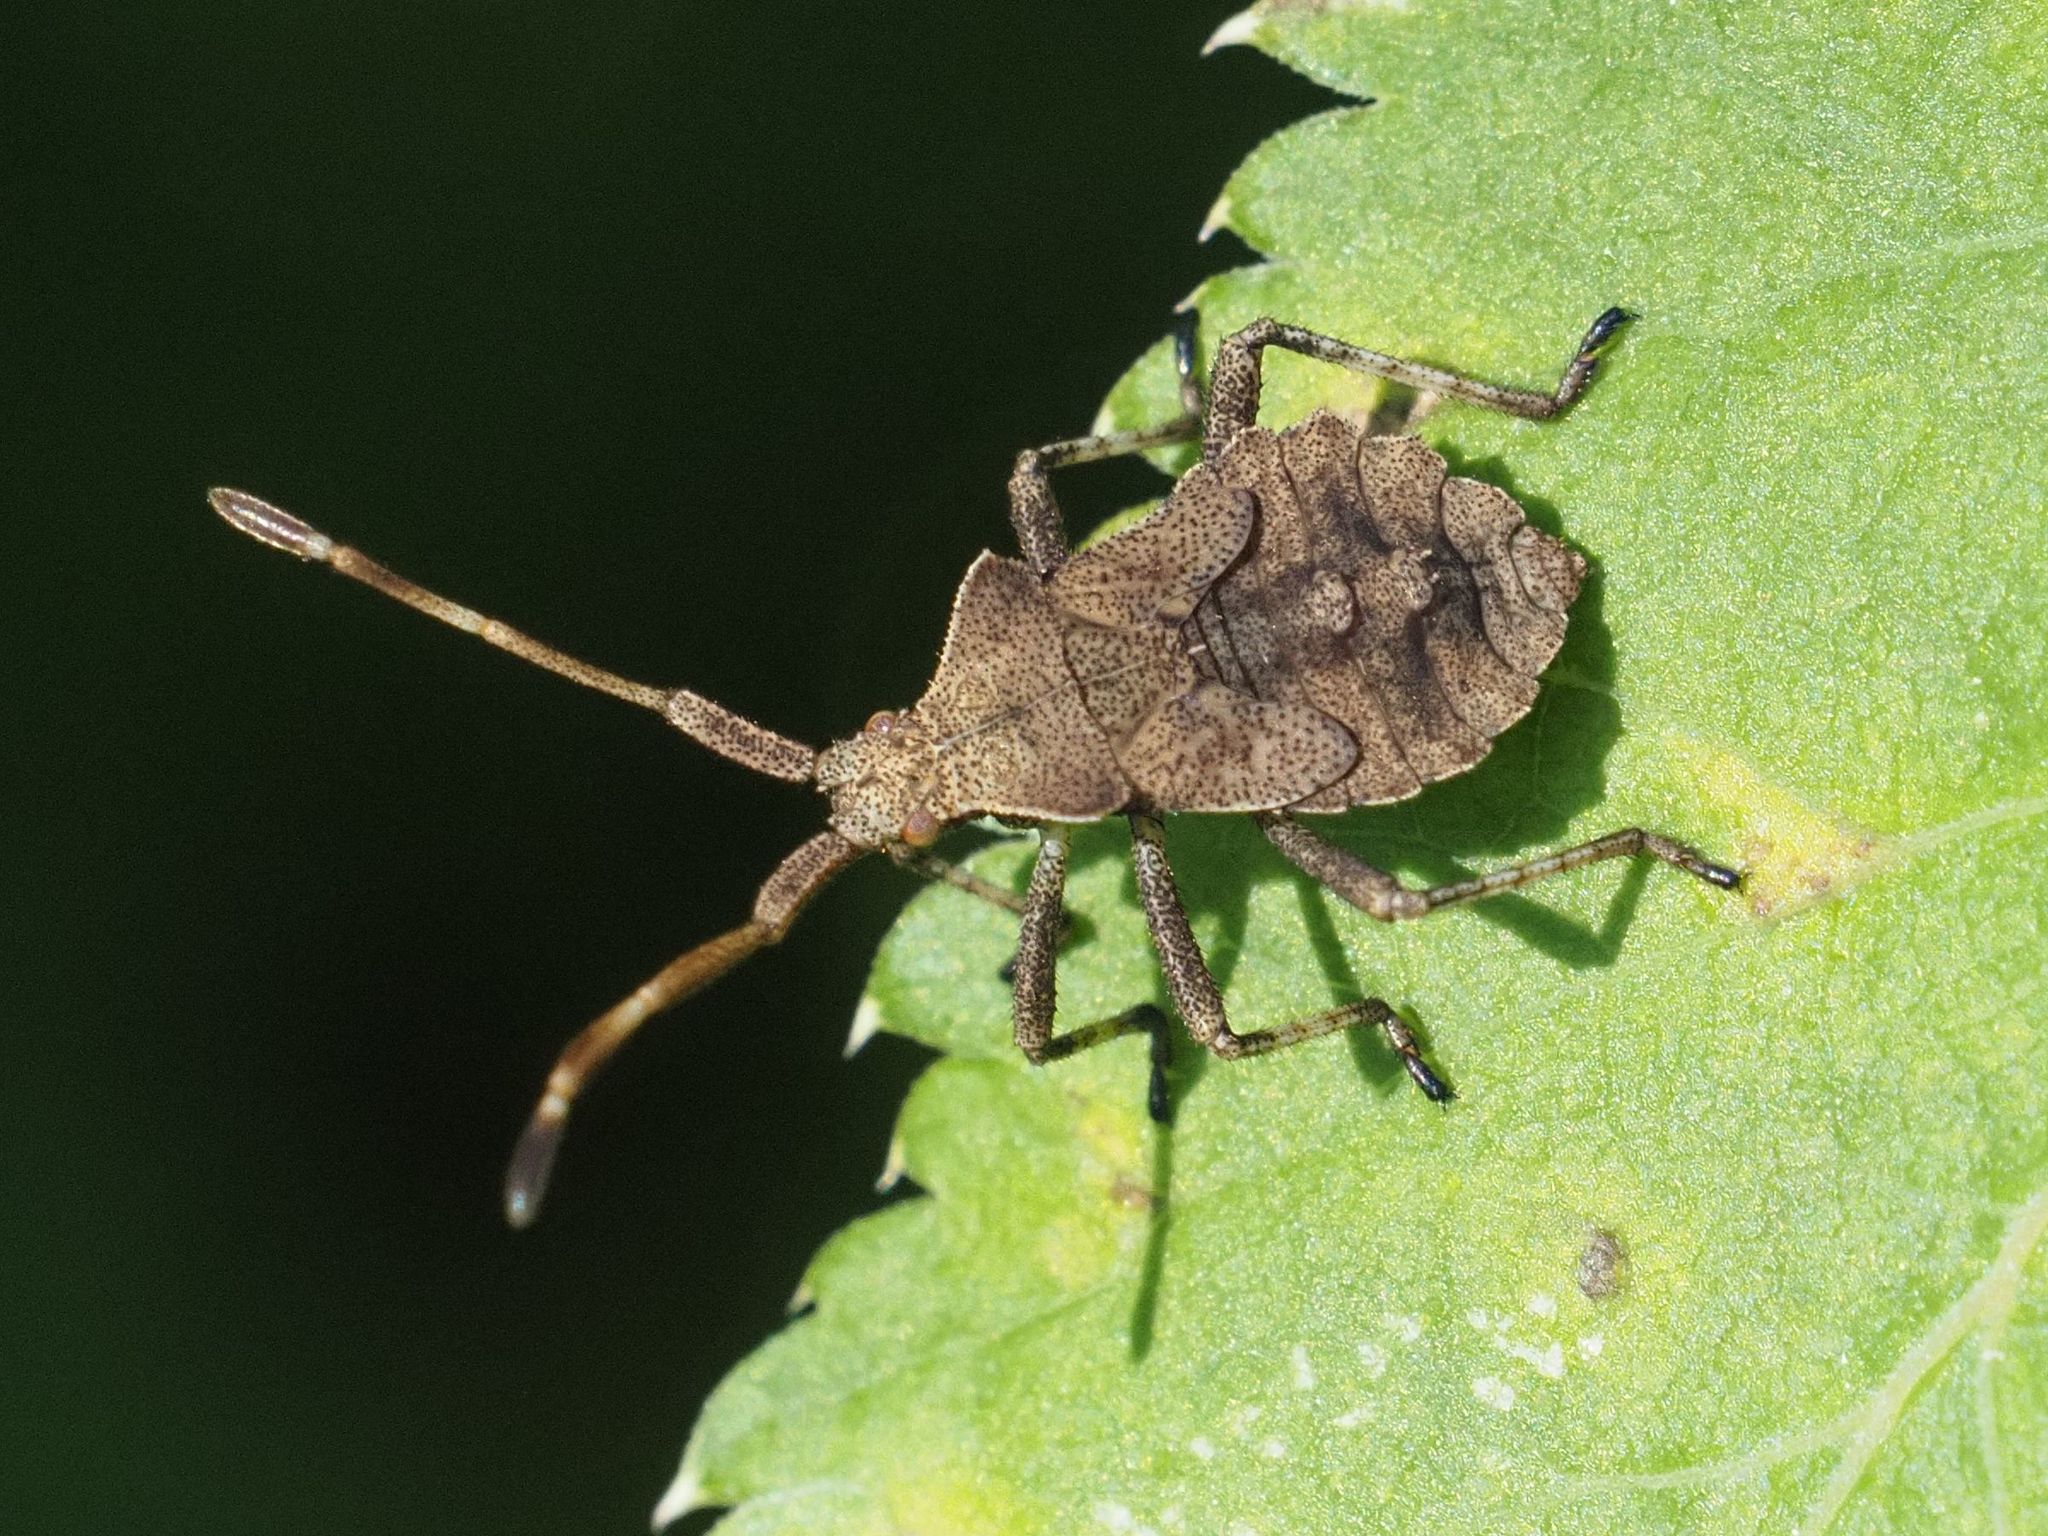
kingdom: Animalia
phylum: Arthropoda
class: Insecta
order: Hemiptera
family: Coreidae
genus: Coreus
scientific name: Coreus marginatus
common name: Dock bug
